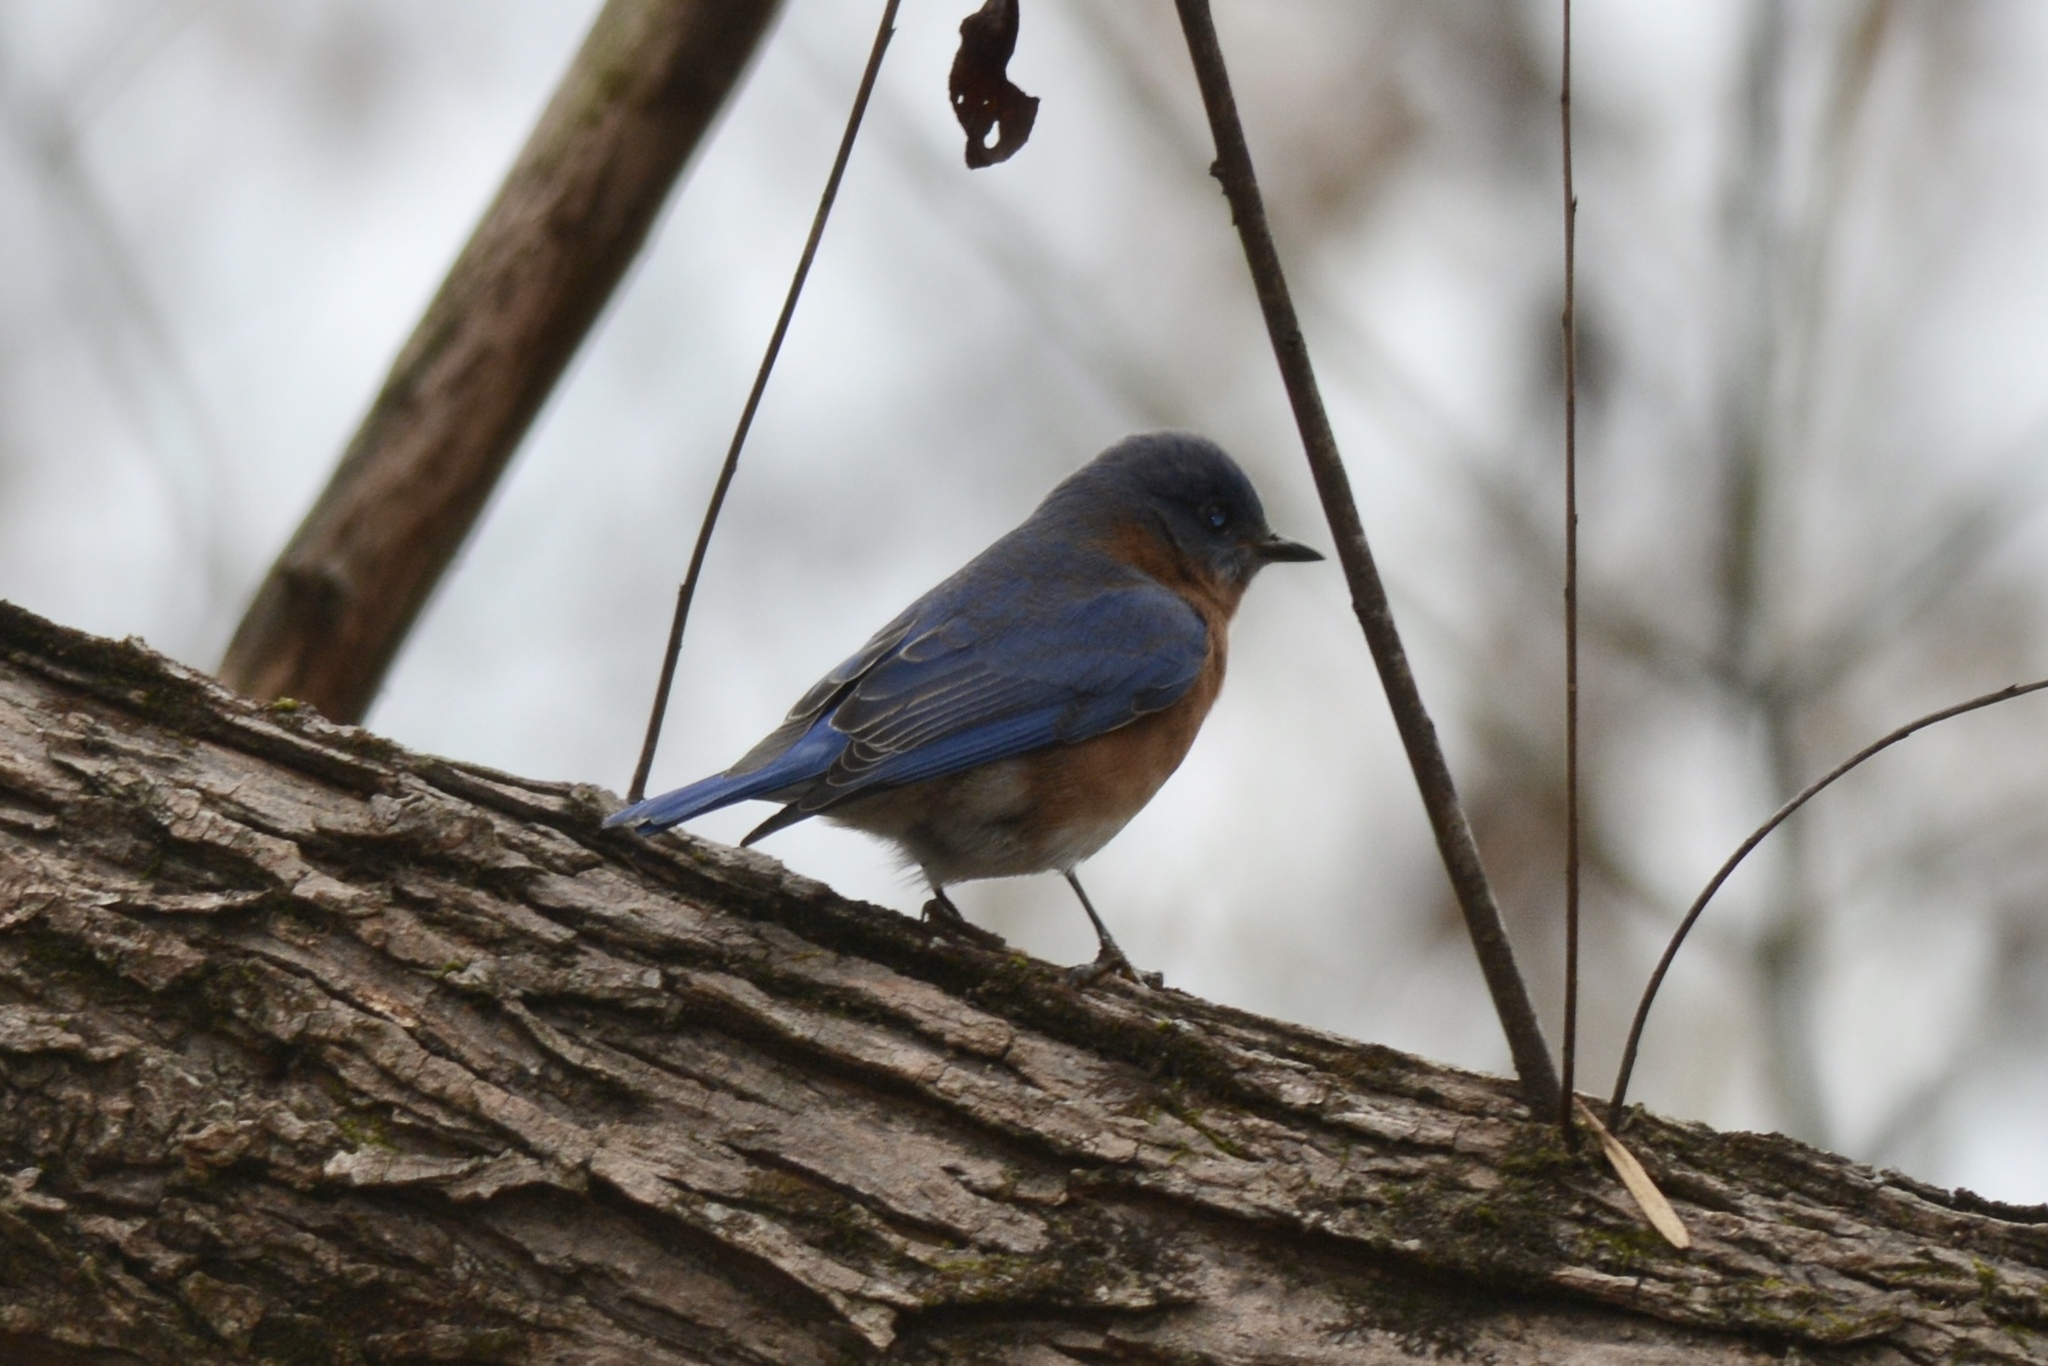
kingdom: Animalia
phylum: Chordata
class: Aves
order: Passeriformes
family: Turdidae
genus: Sialia
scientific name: Sialia sialis
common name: Eastern bluebird
